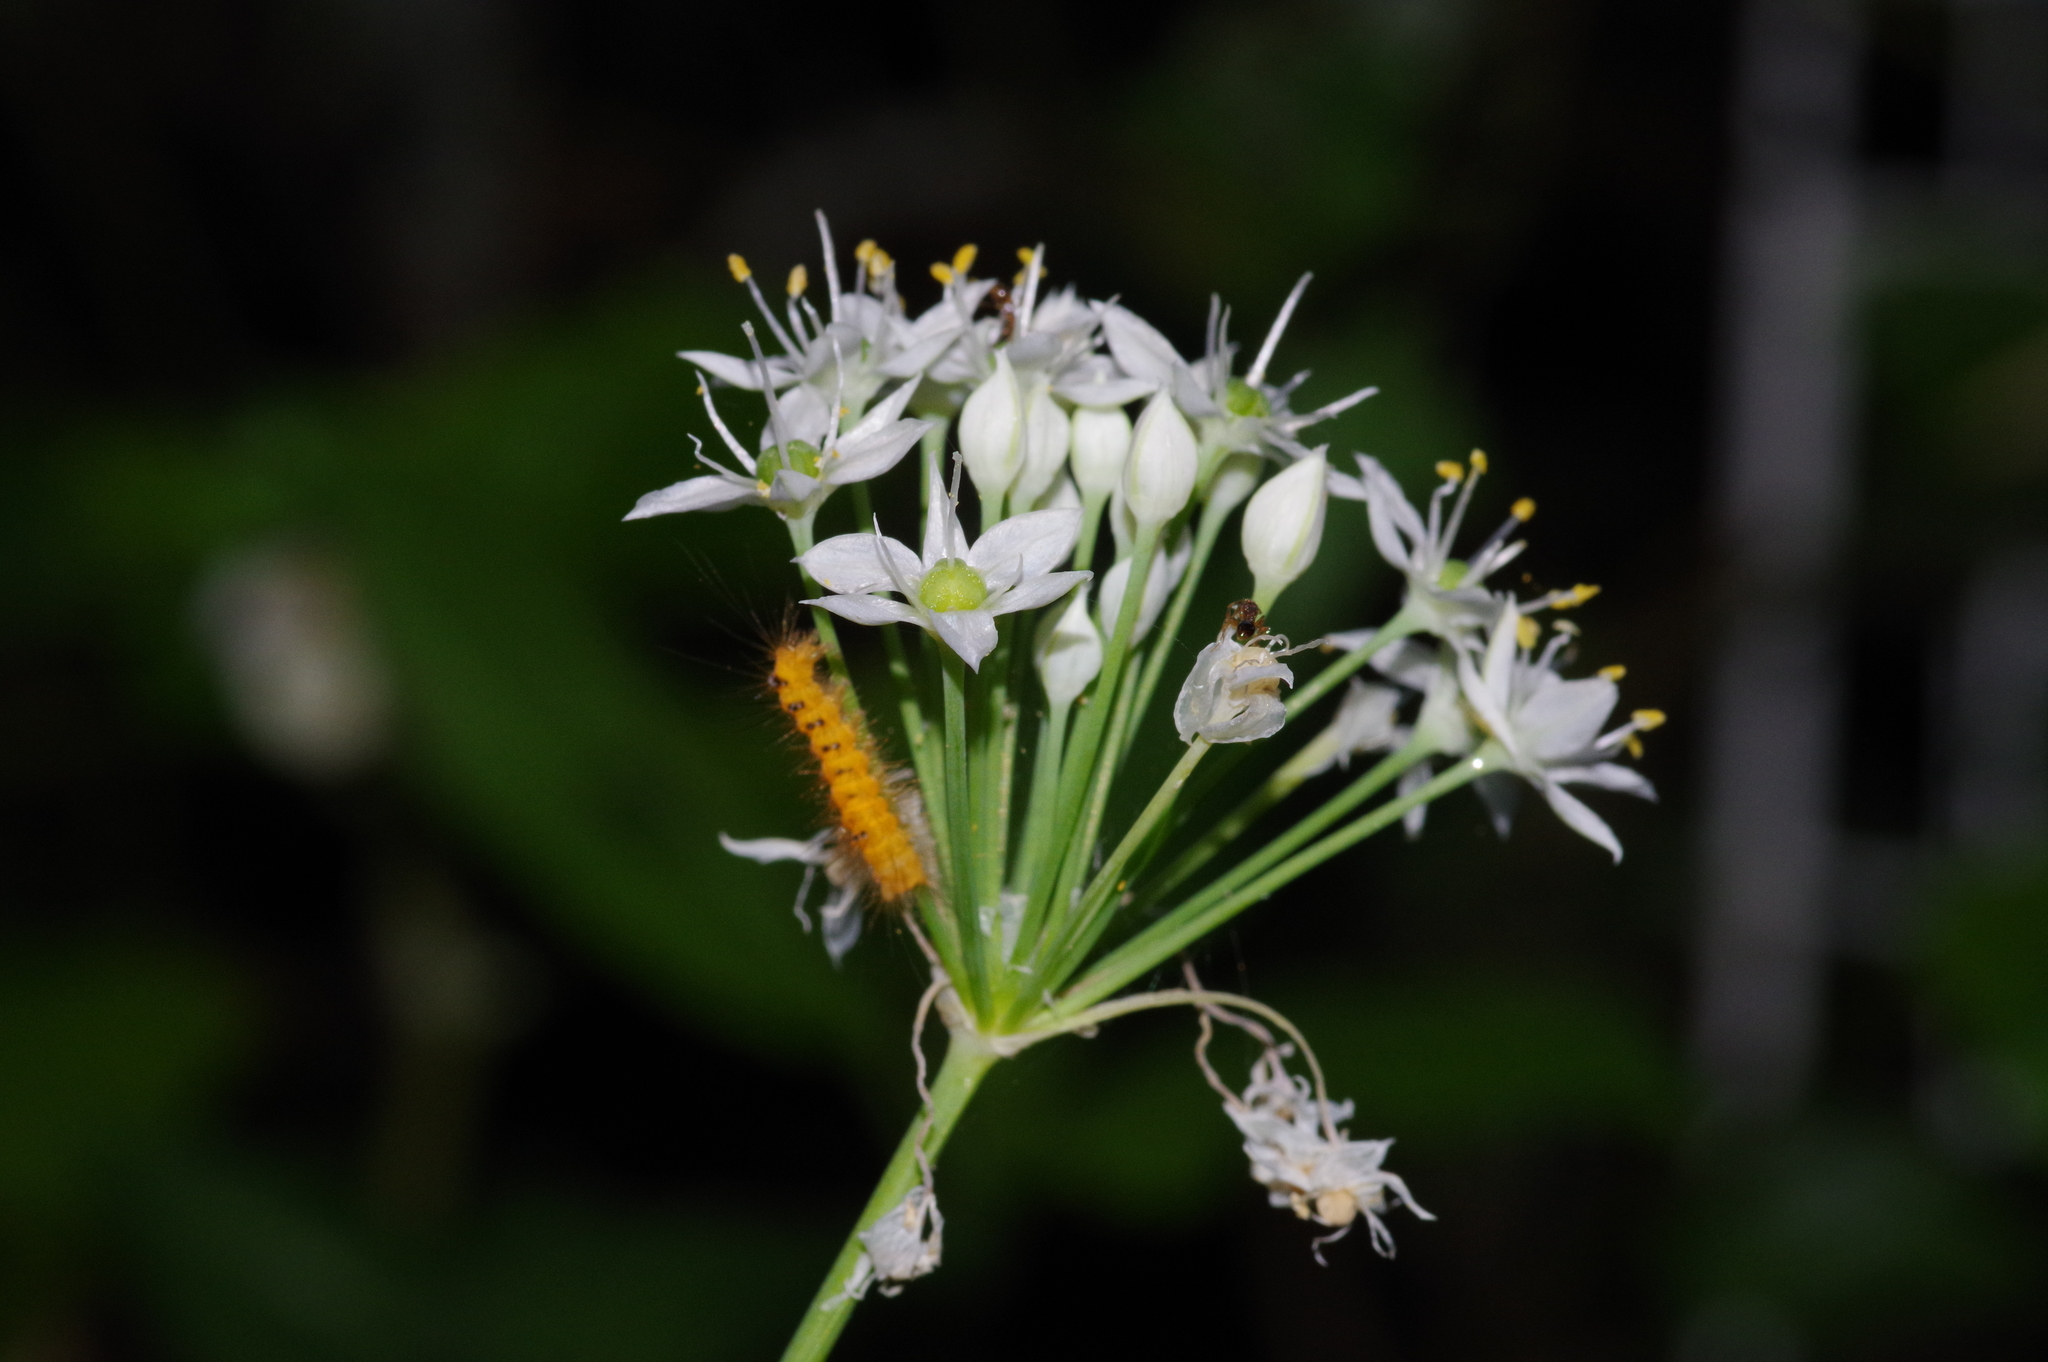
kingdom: Plantae
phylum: Tracheophyta
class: Liliopsida
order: Asparagales
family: Amaryllidaceae
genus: Allium
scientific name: Allium tuberosum
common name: Chinese chives
